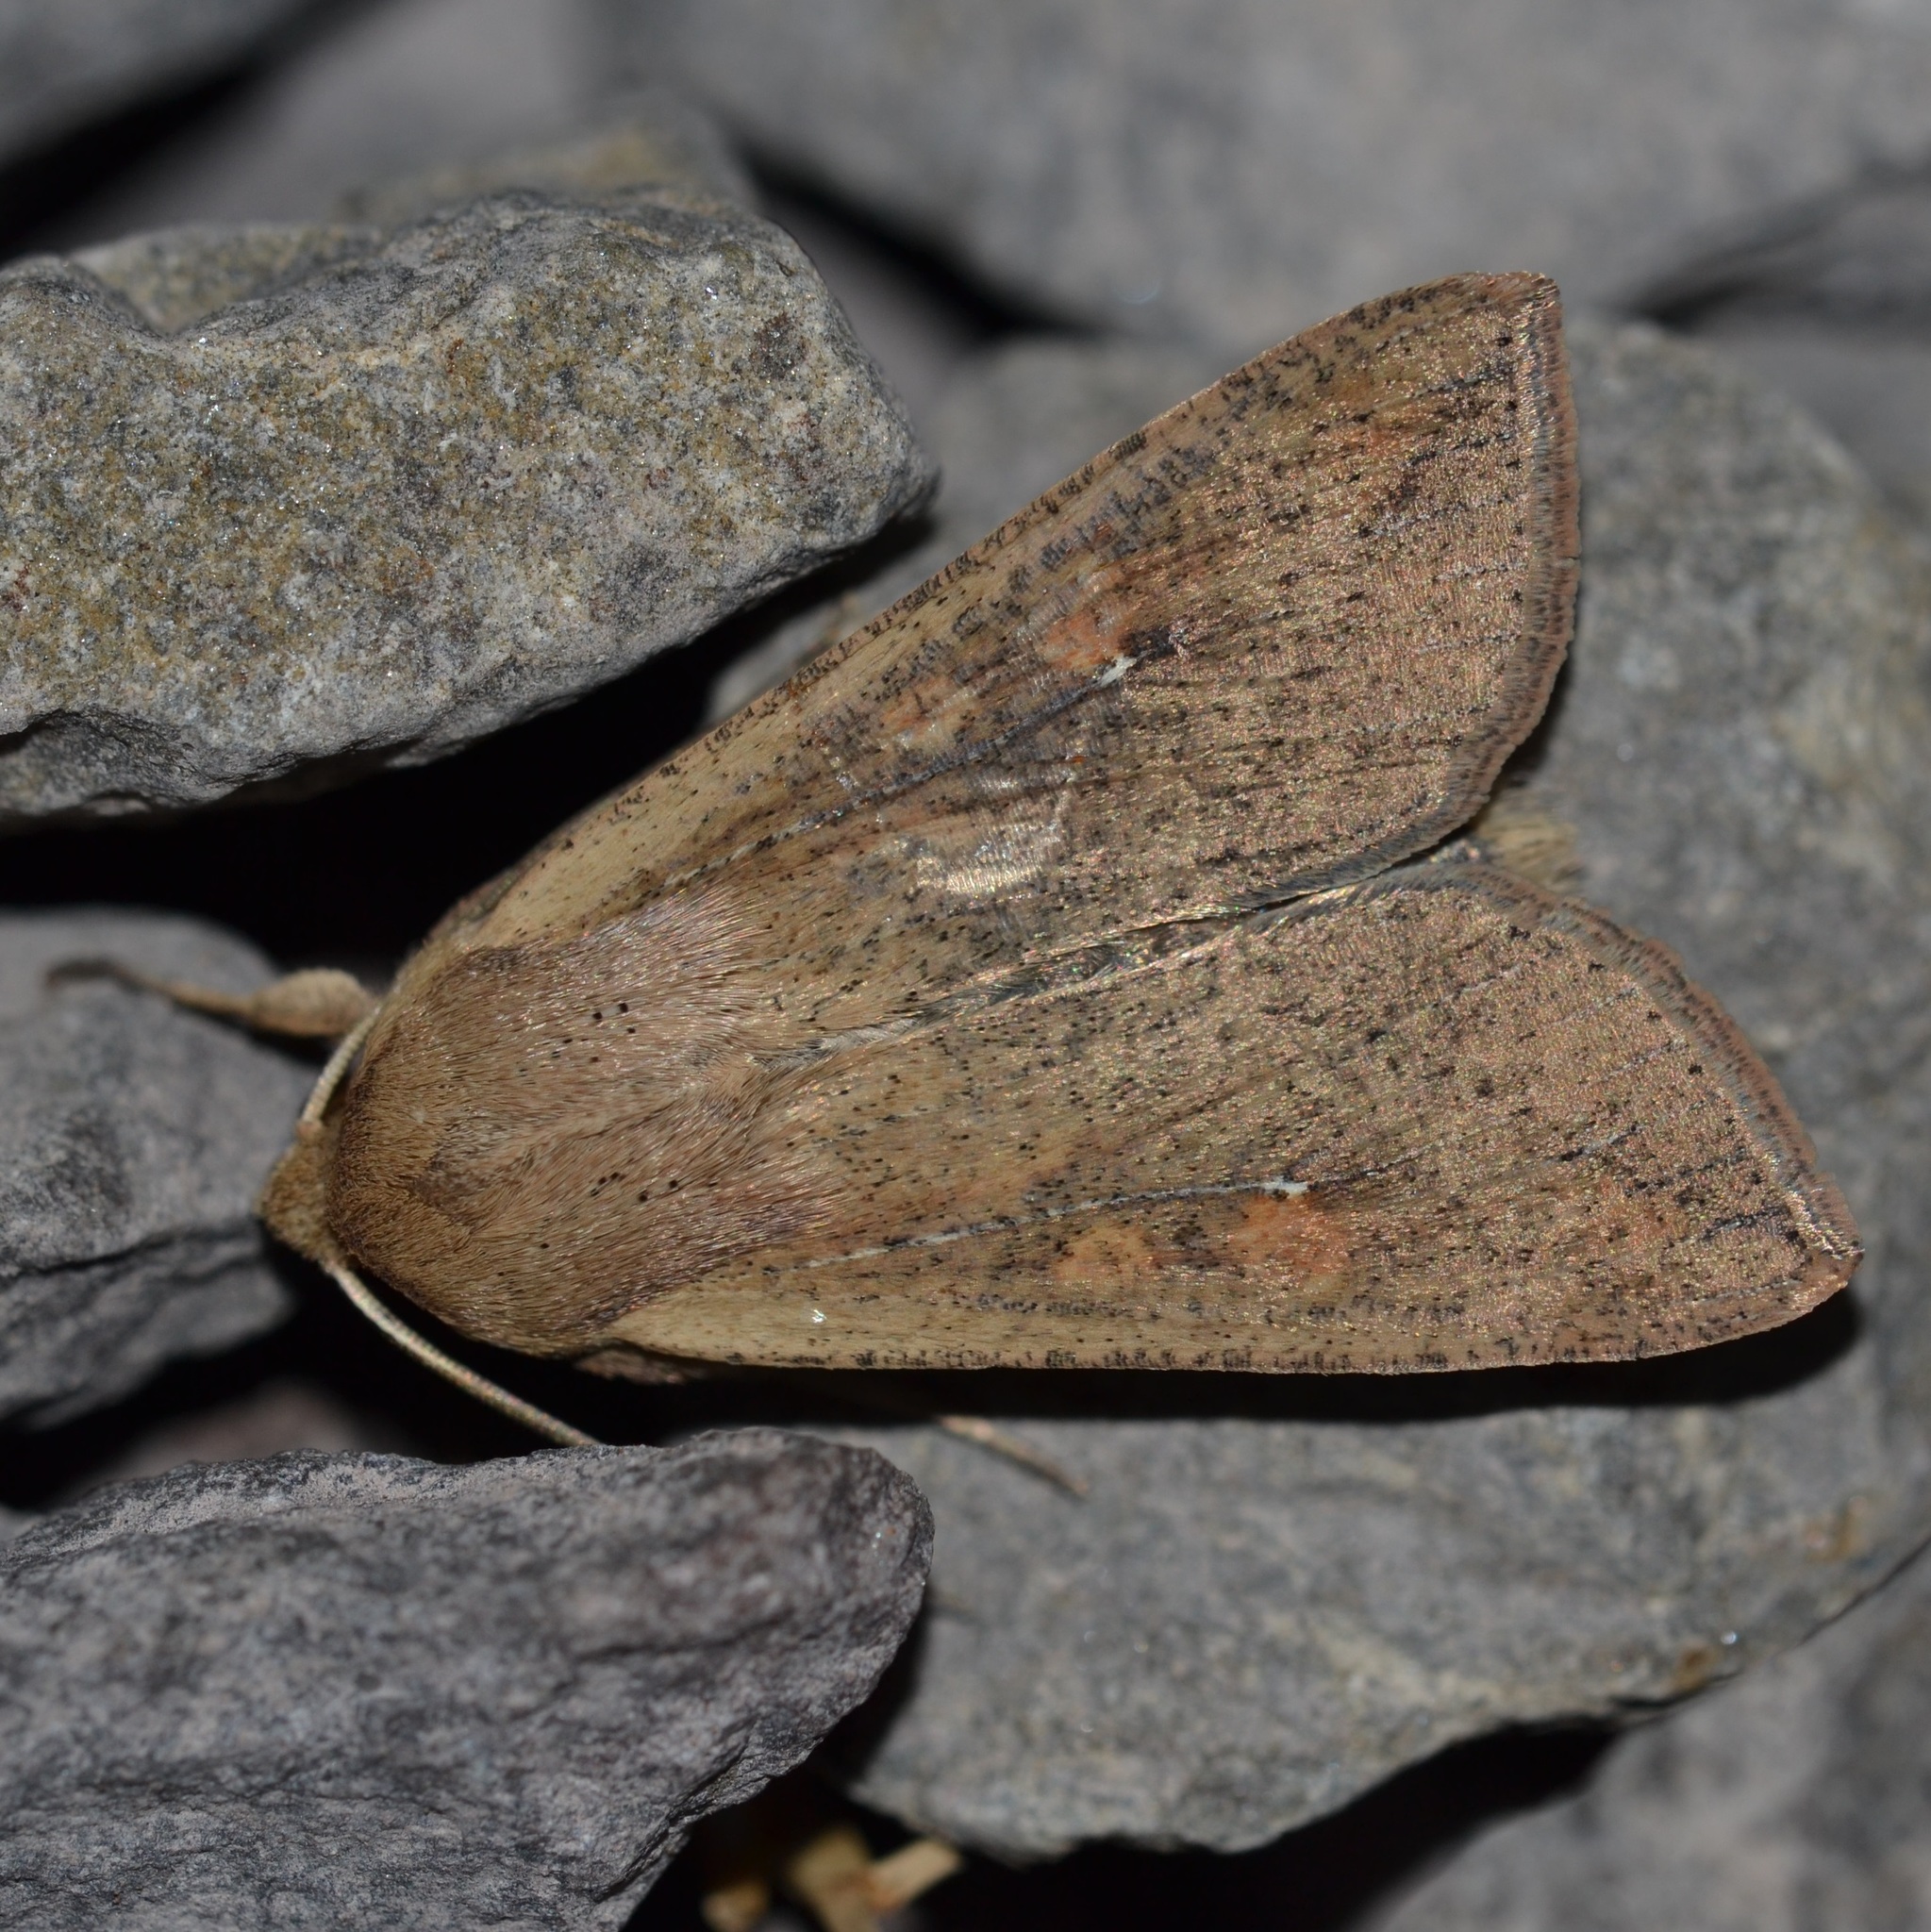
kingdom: Animalia
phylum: Arthropoda
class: Insecta
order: Lepidoptera
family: Noctuidae
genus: Mythimna
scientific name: Mythimna unipuncta
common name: White-speck
